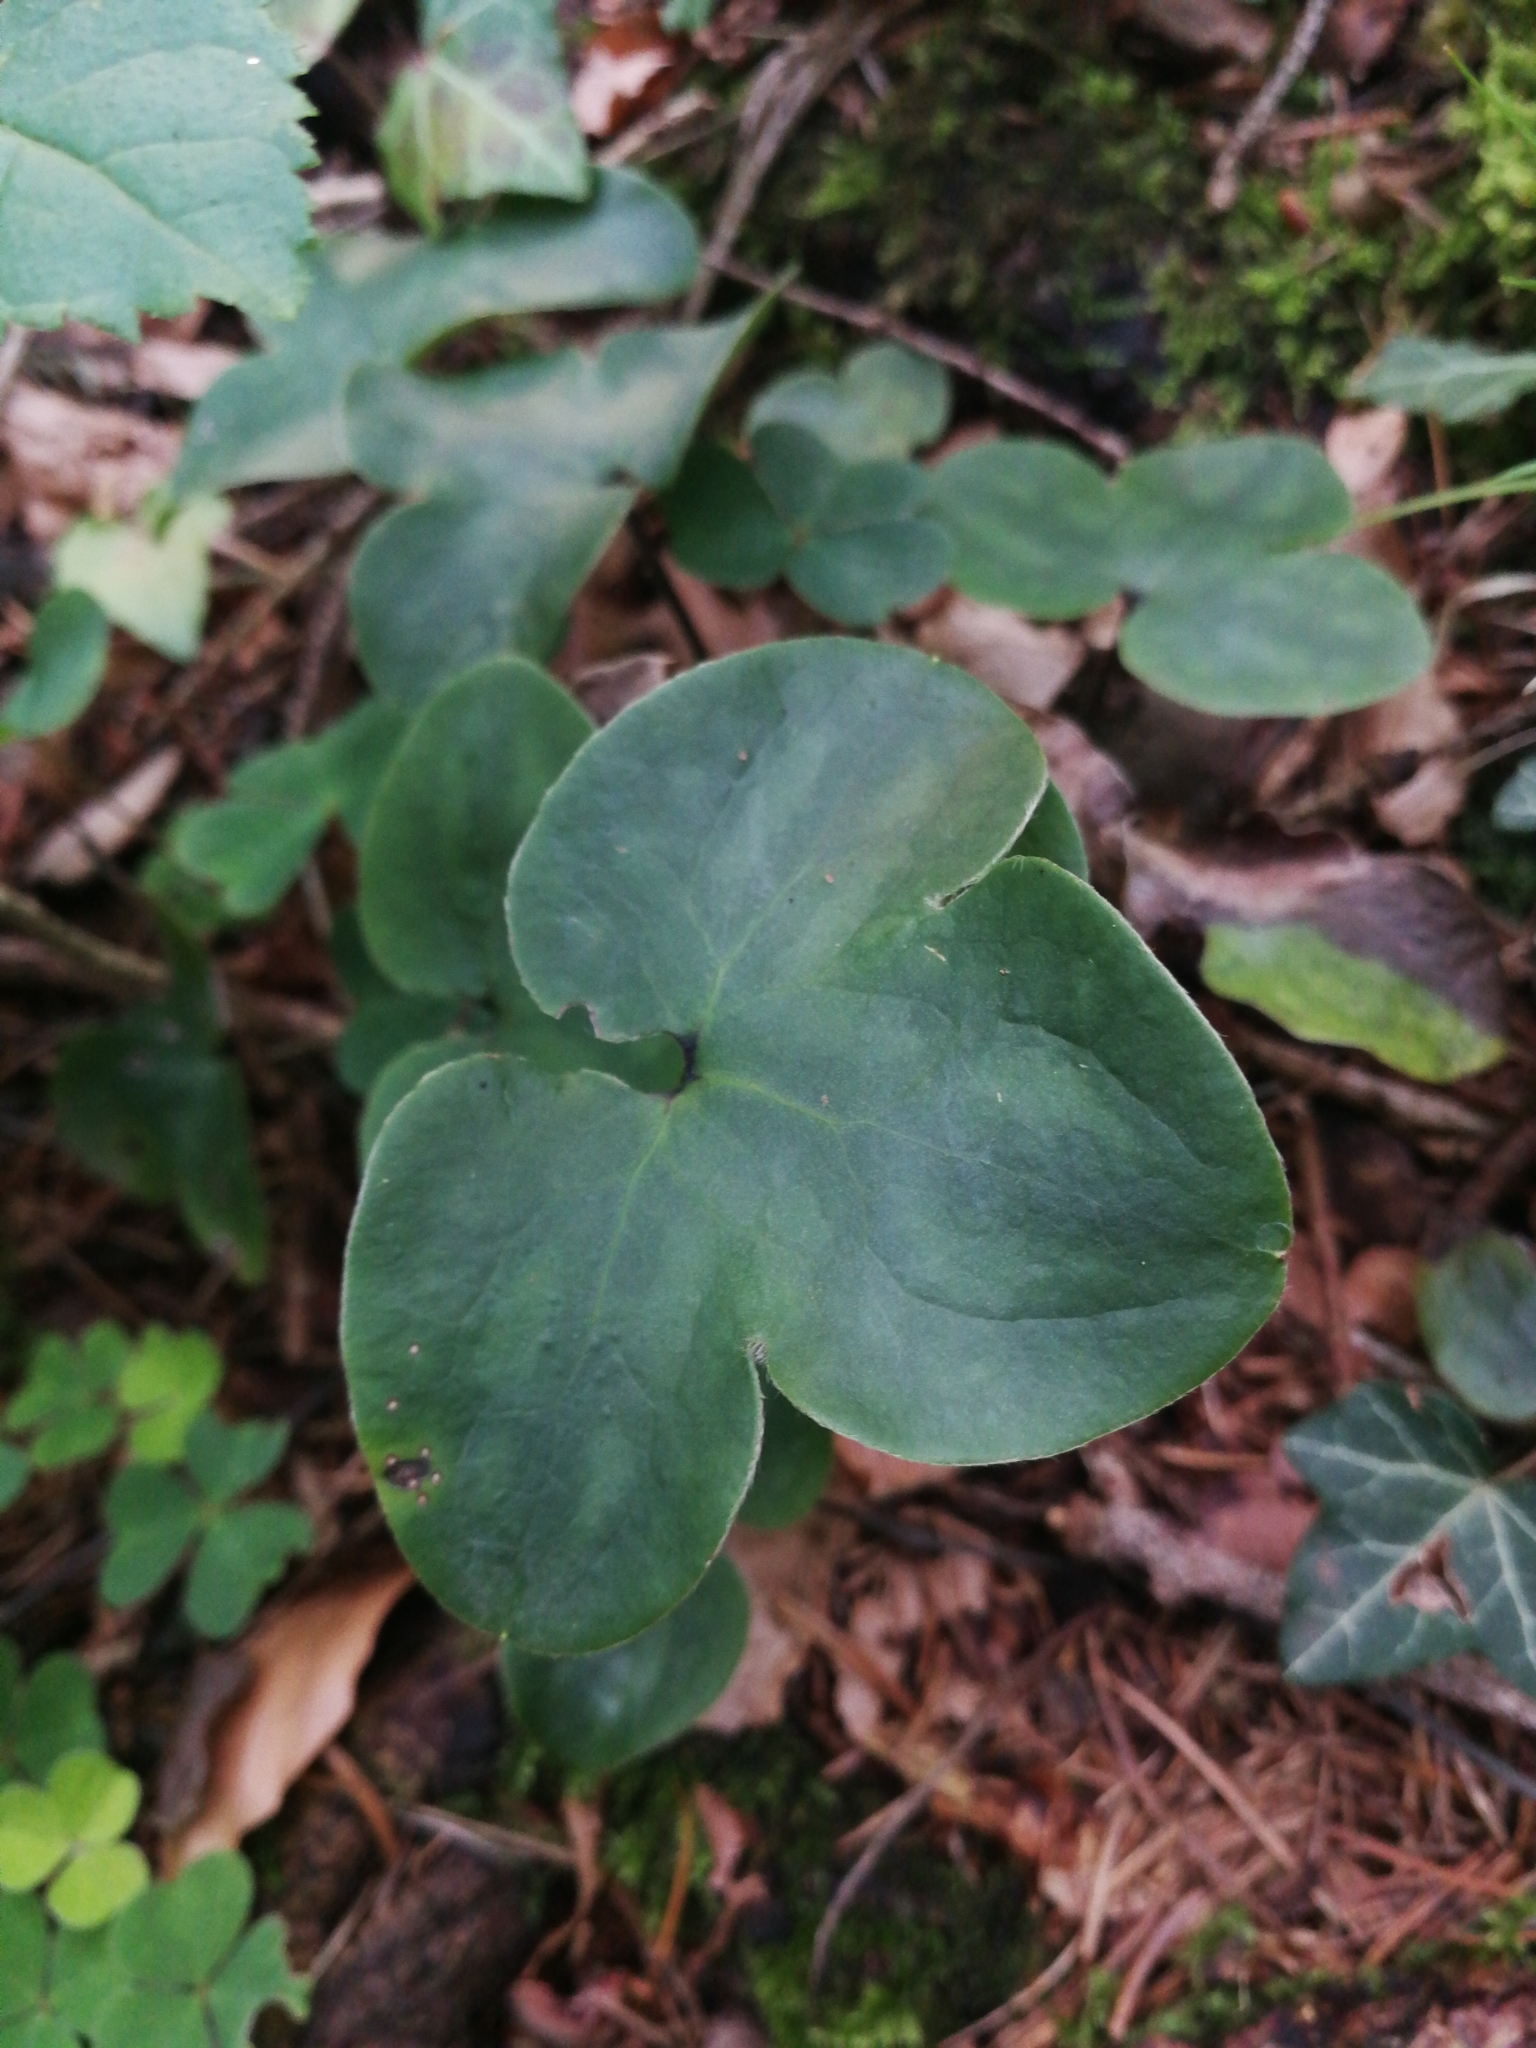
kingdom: Plantae
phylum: Tracheophyta
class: Magnoliopsida
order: Ranunculales
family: Ranunculaceae
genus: Hepatica
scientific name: Hepatica nobilis
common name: Liverleaf
